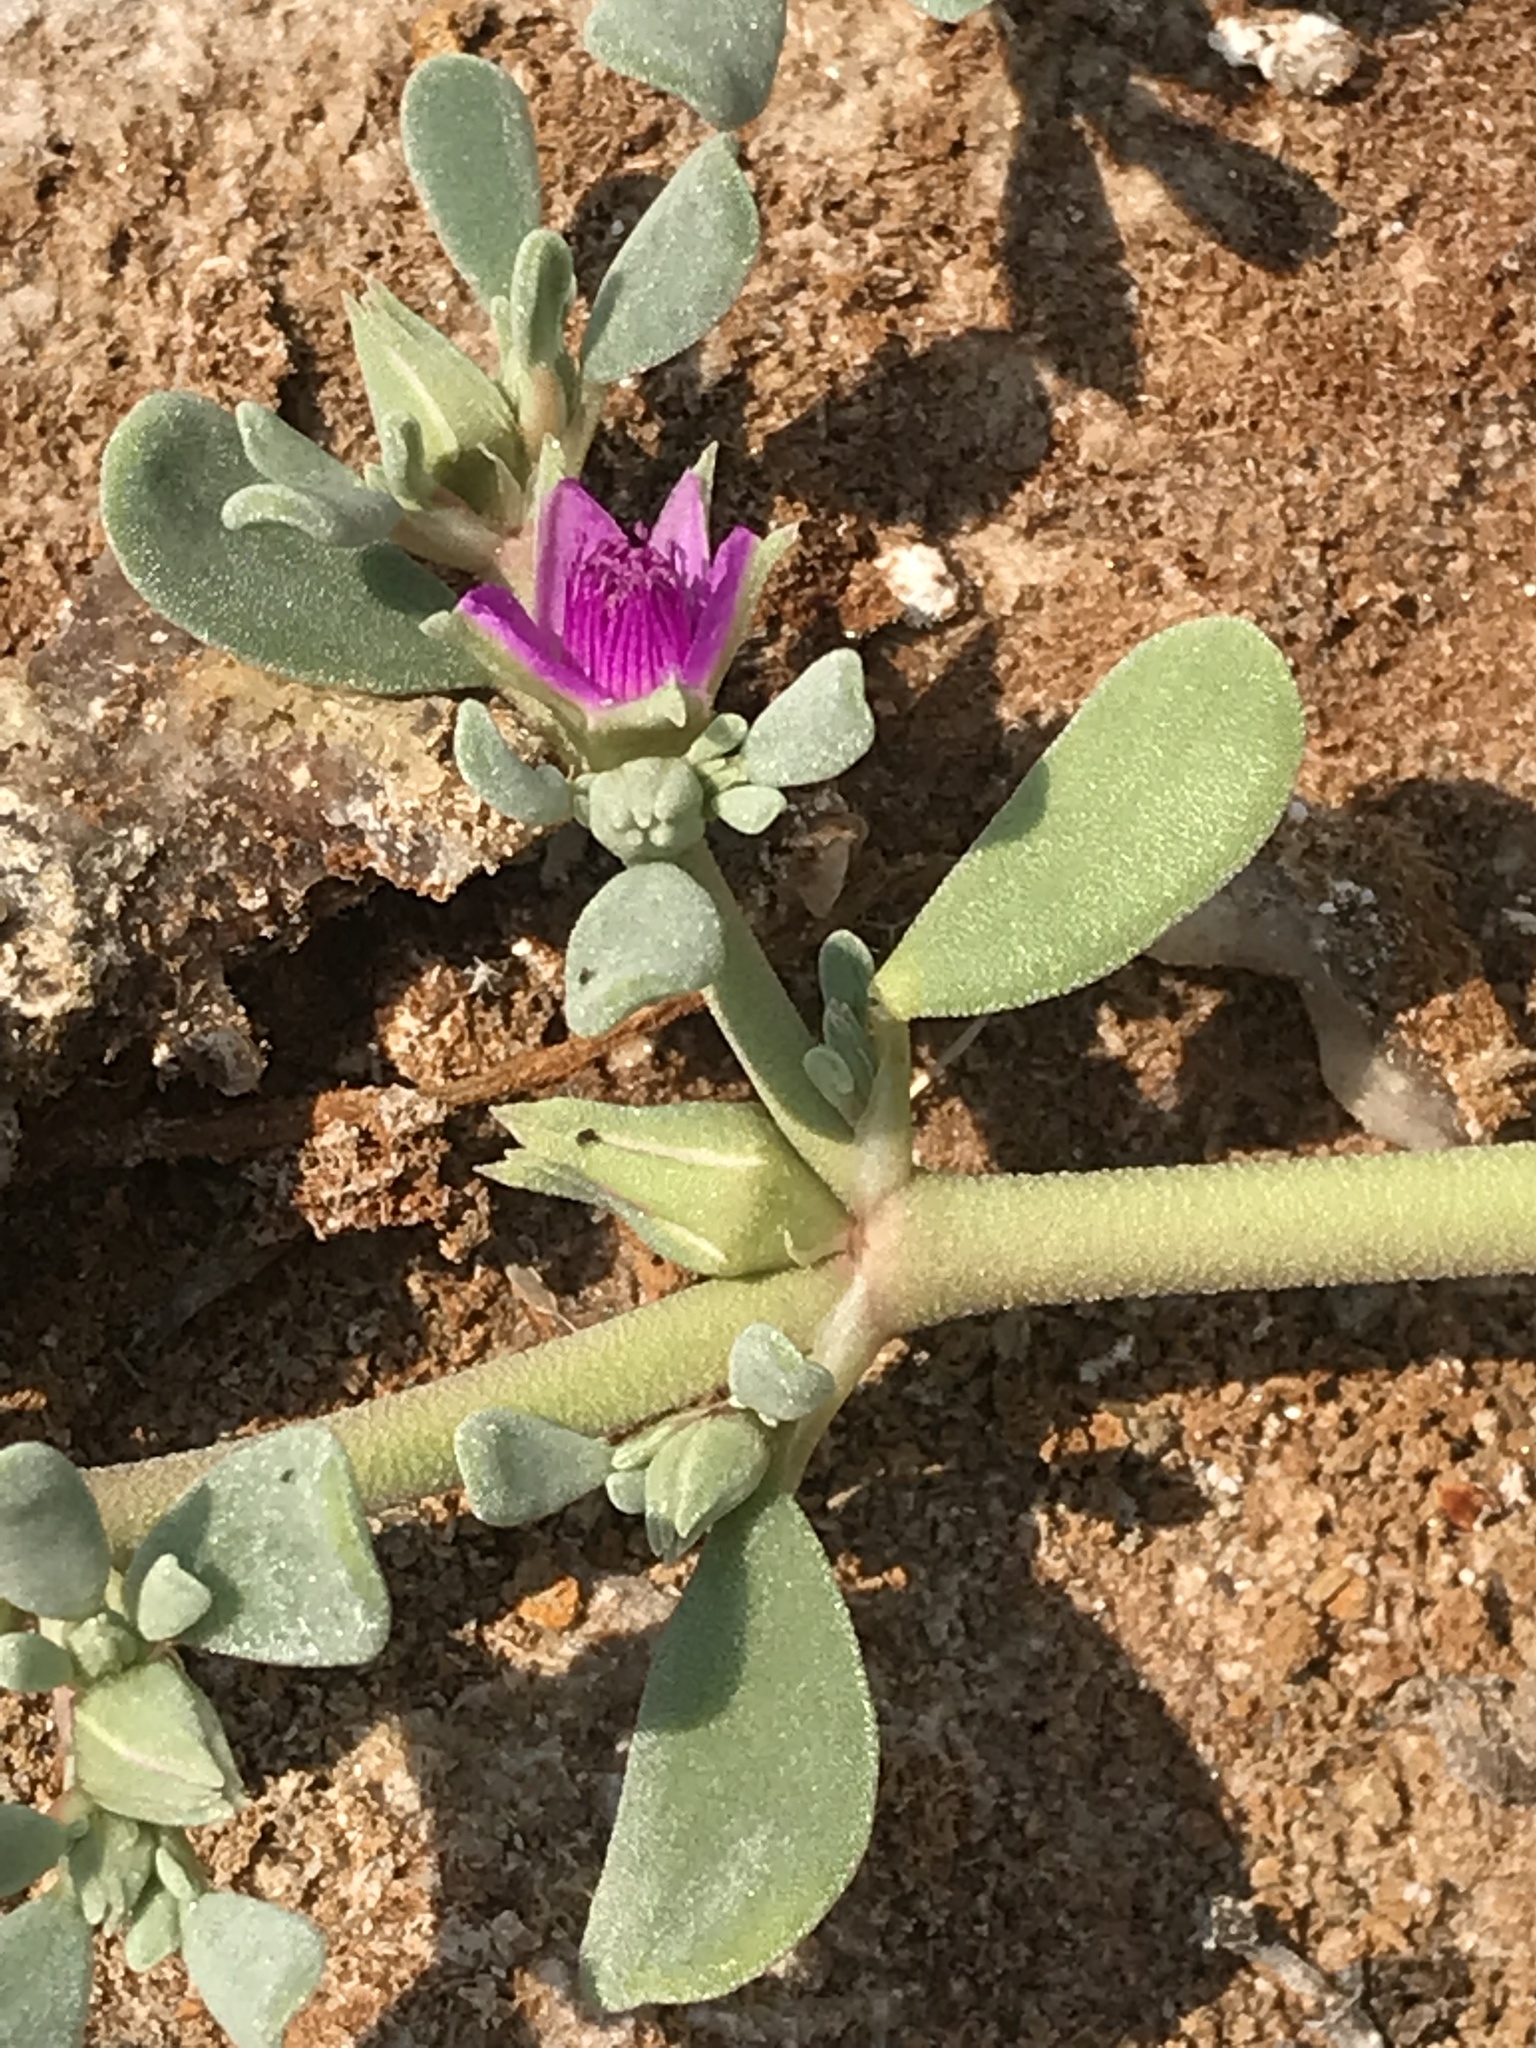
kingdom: Plantae
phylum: Tracheophyta
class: Magnoliopsida
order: Caryophyllales
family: Aizoaceae
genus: Sesuvium
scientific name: Sesuvium revolutifolium
